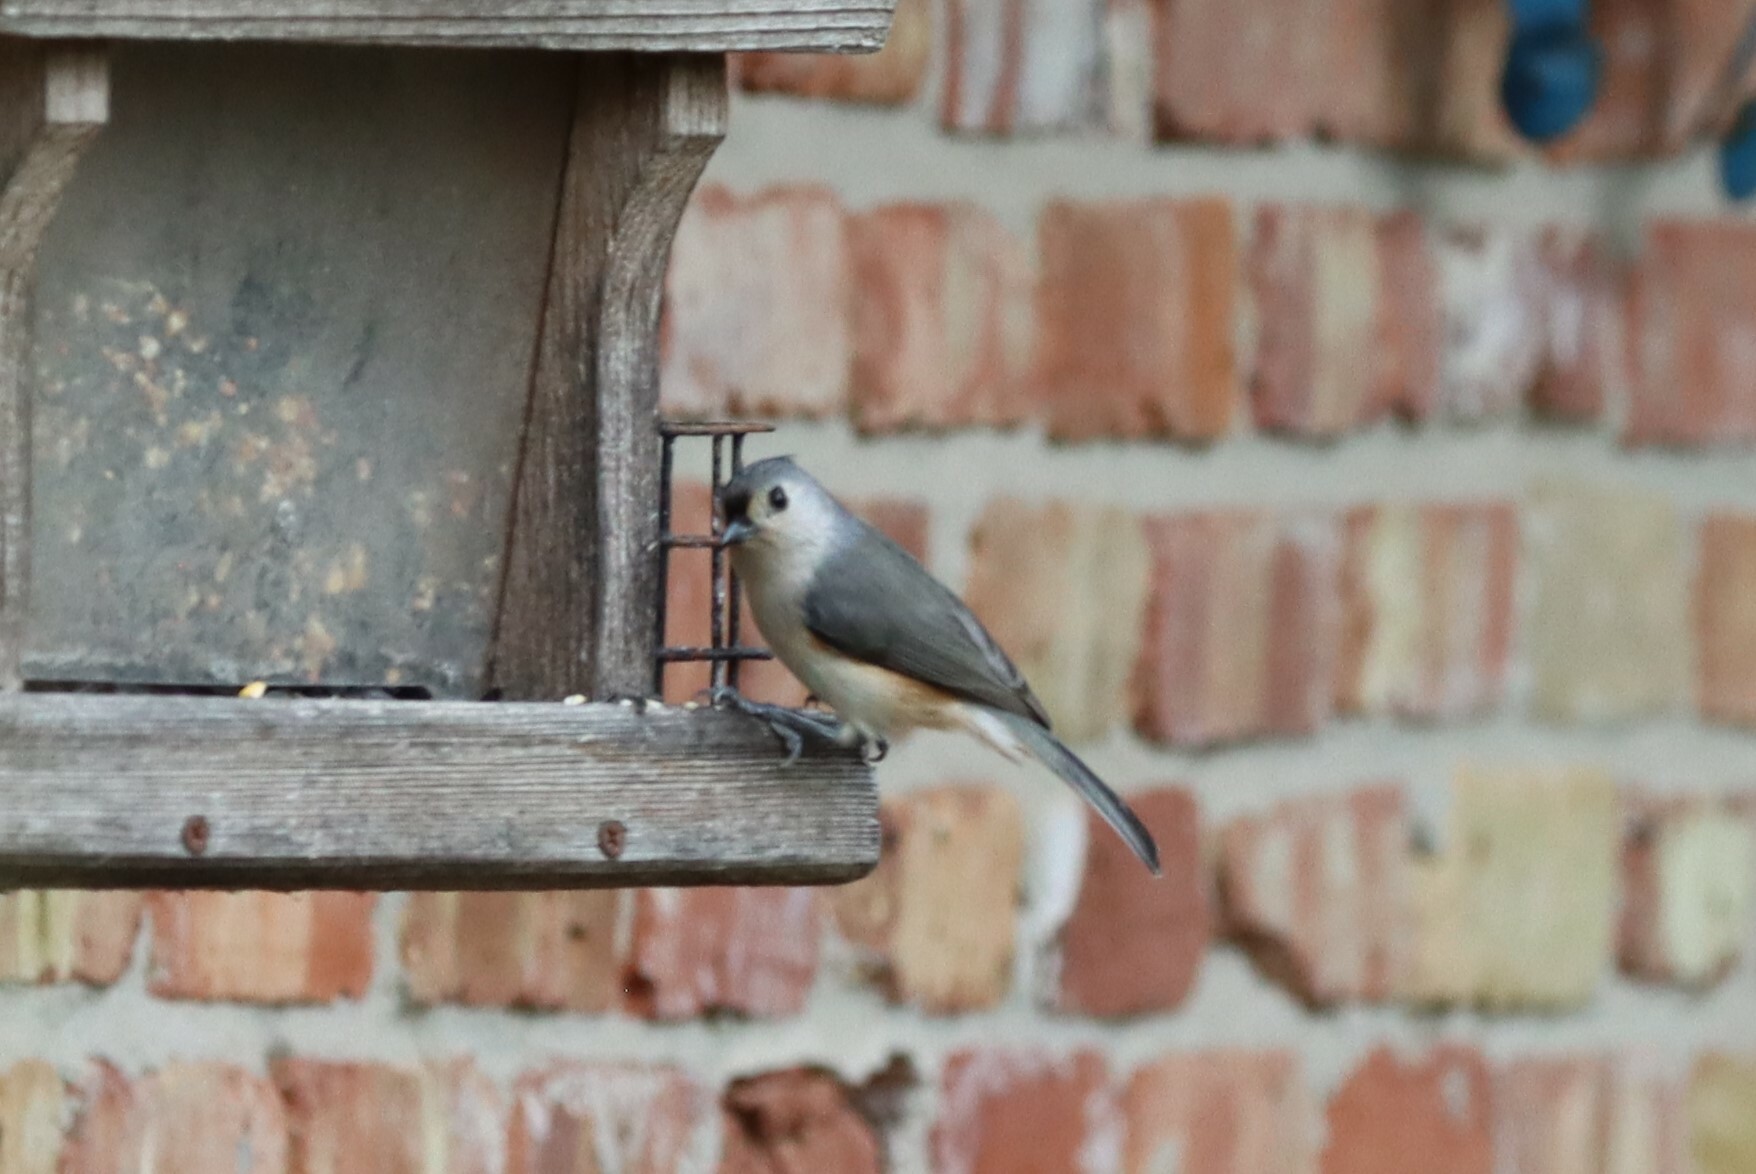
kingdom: Animalia
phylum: Chordata
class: Aves
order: Passeriformes
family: Paridae
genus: Baeolophus
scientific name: Baeolophus bicolor
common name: Tufted titmouse
